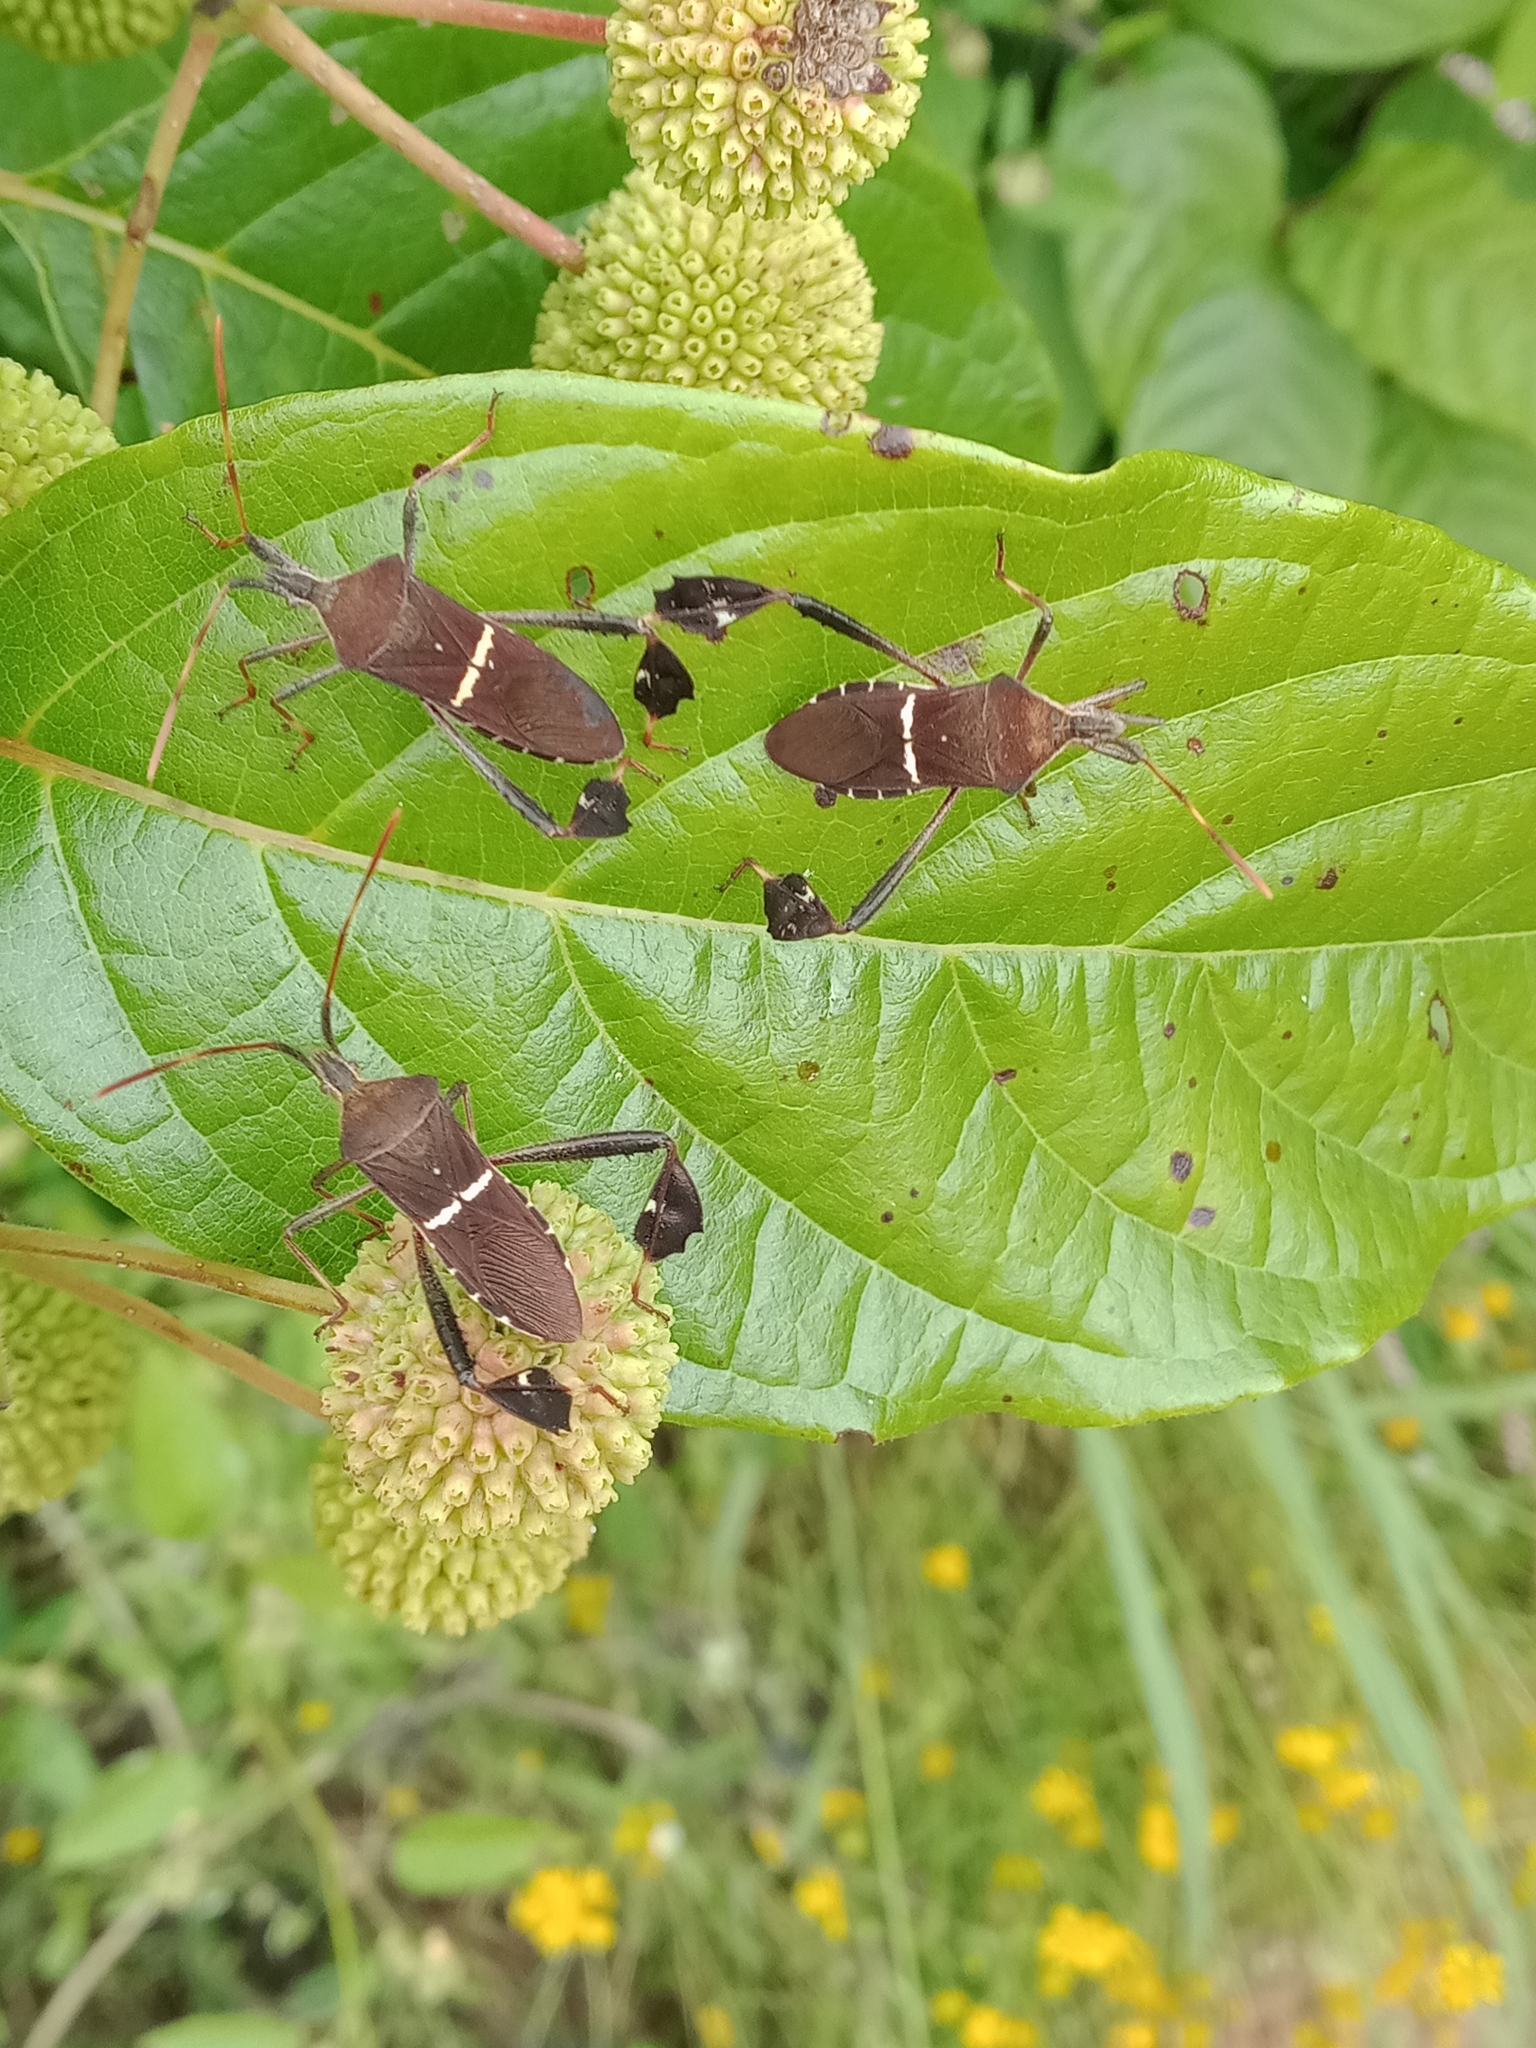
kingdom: Animalia
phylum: Arthropoda
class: Insecta
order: Hemiptera
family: Coreidae
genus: Leptoglossus
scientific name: Leptoglossus phyllopus
